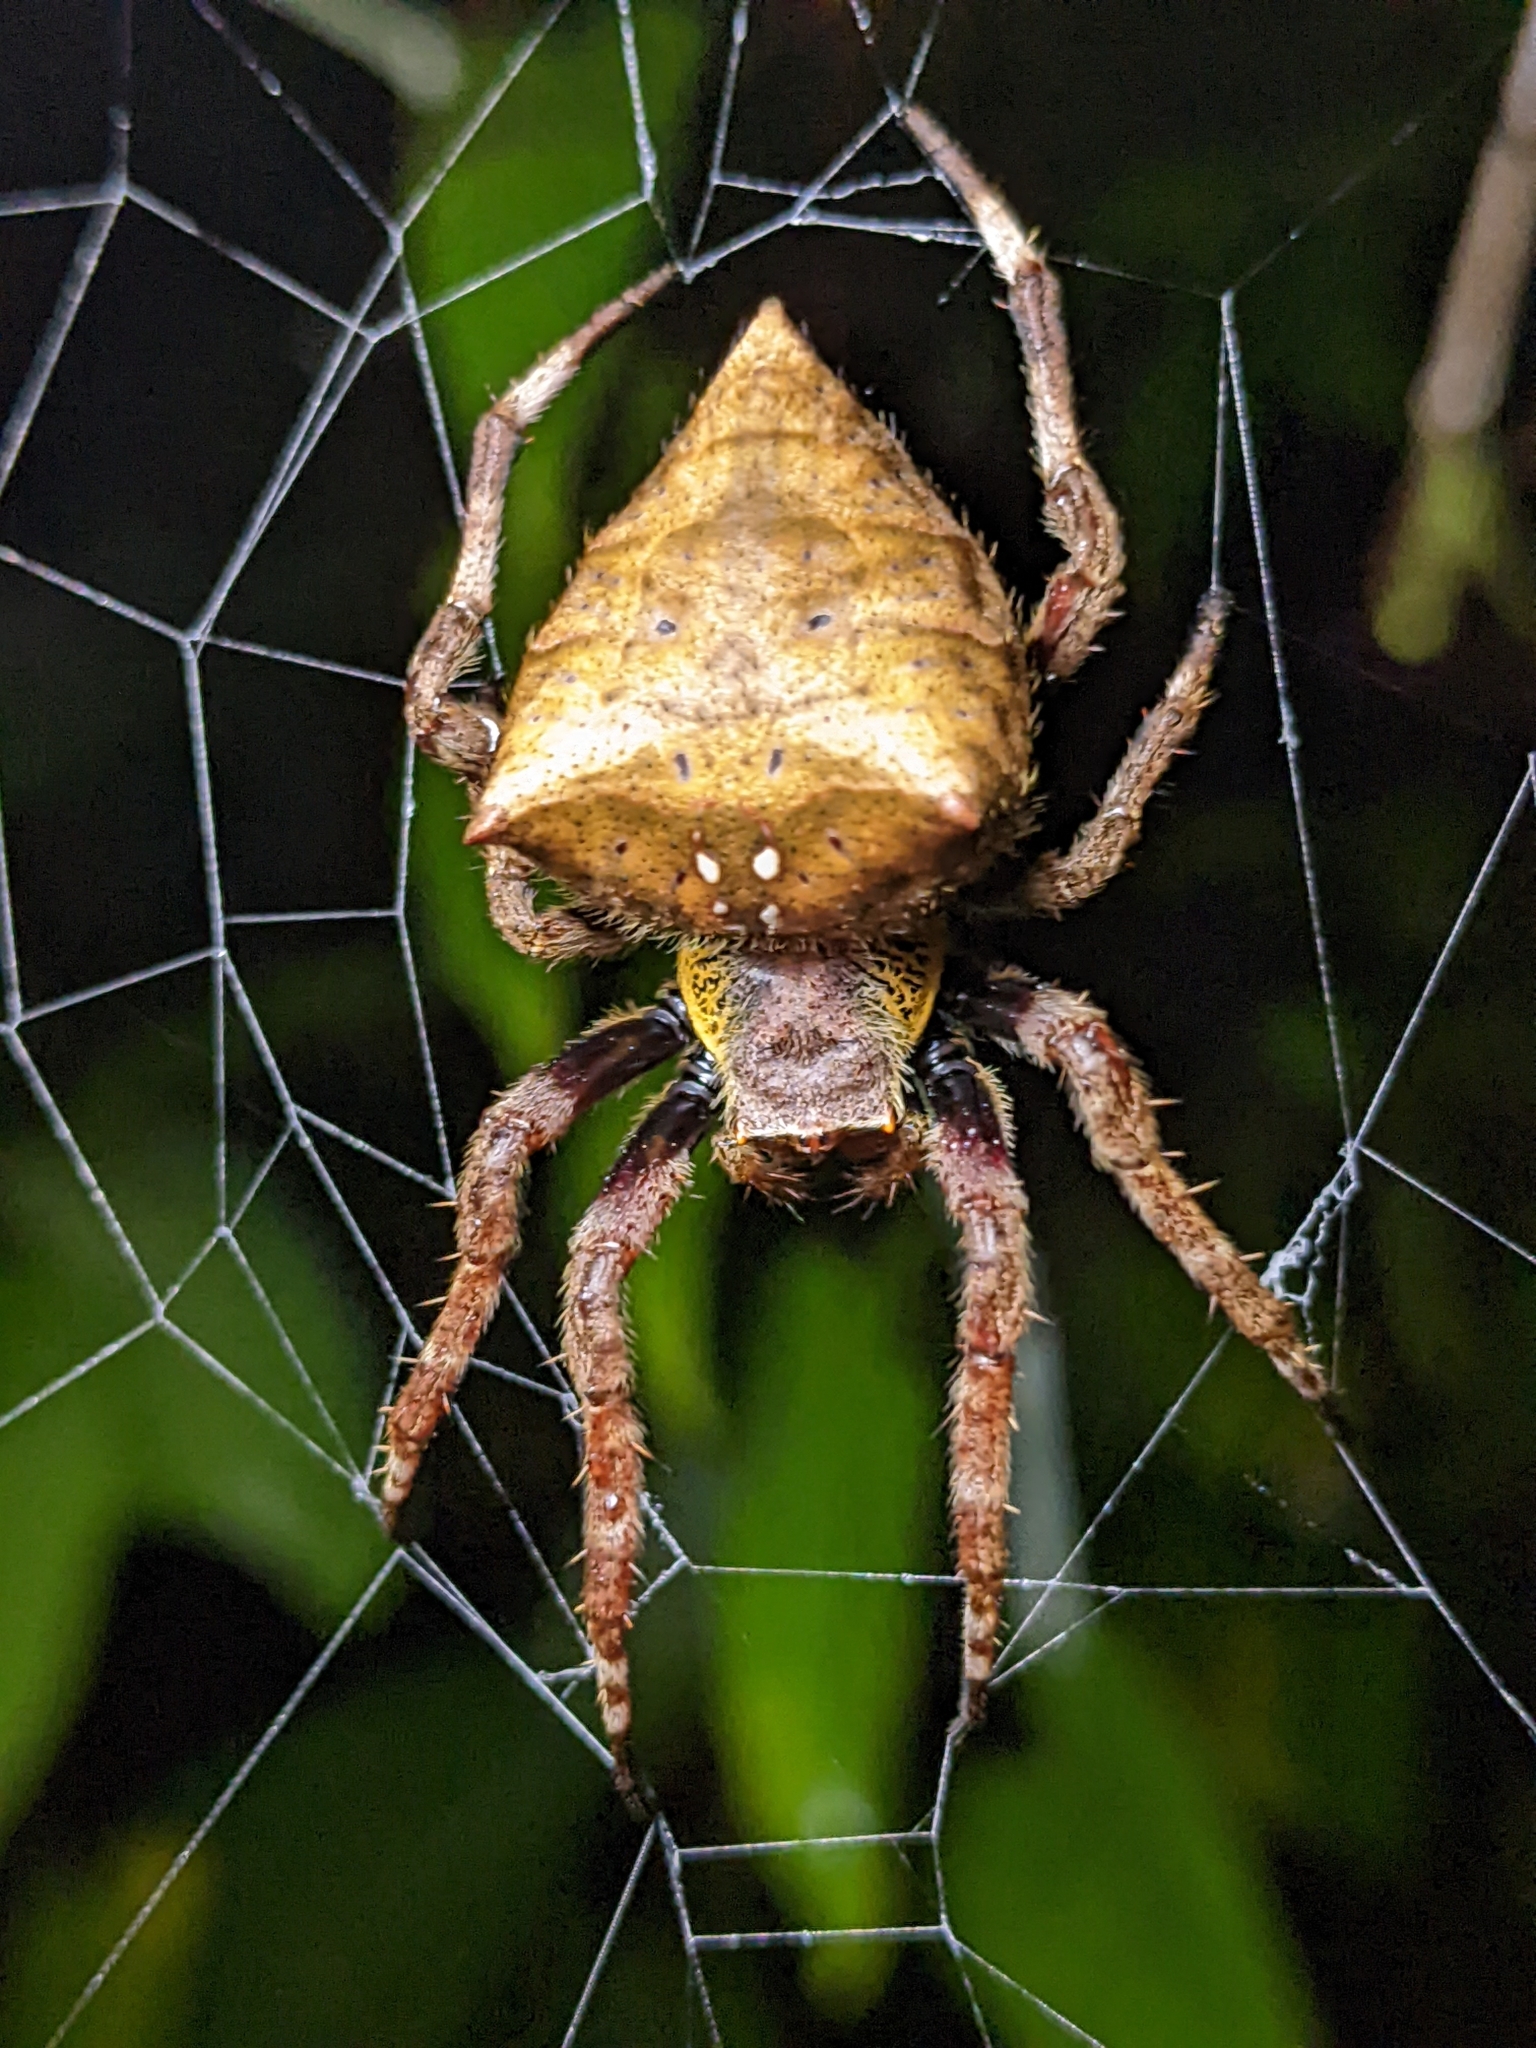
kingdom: Animalia
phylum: Arthropoda
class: Arachnida
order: Araneae
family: Araneidae
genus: Parawixia
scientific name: Parawixia dehaani
